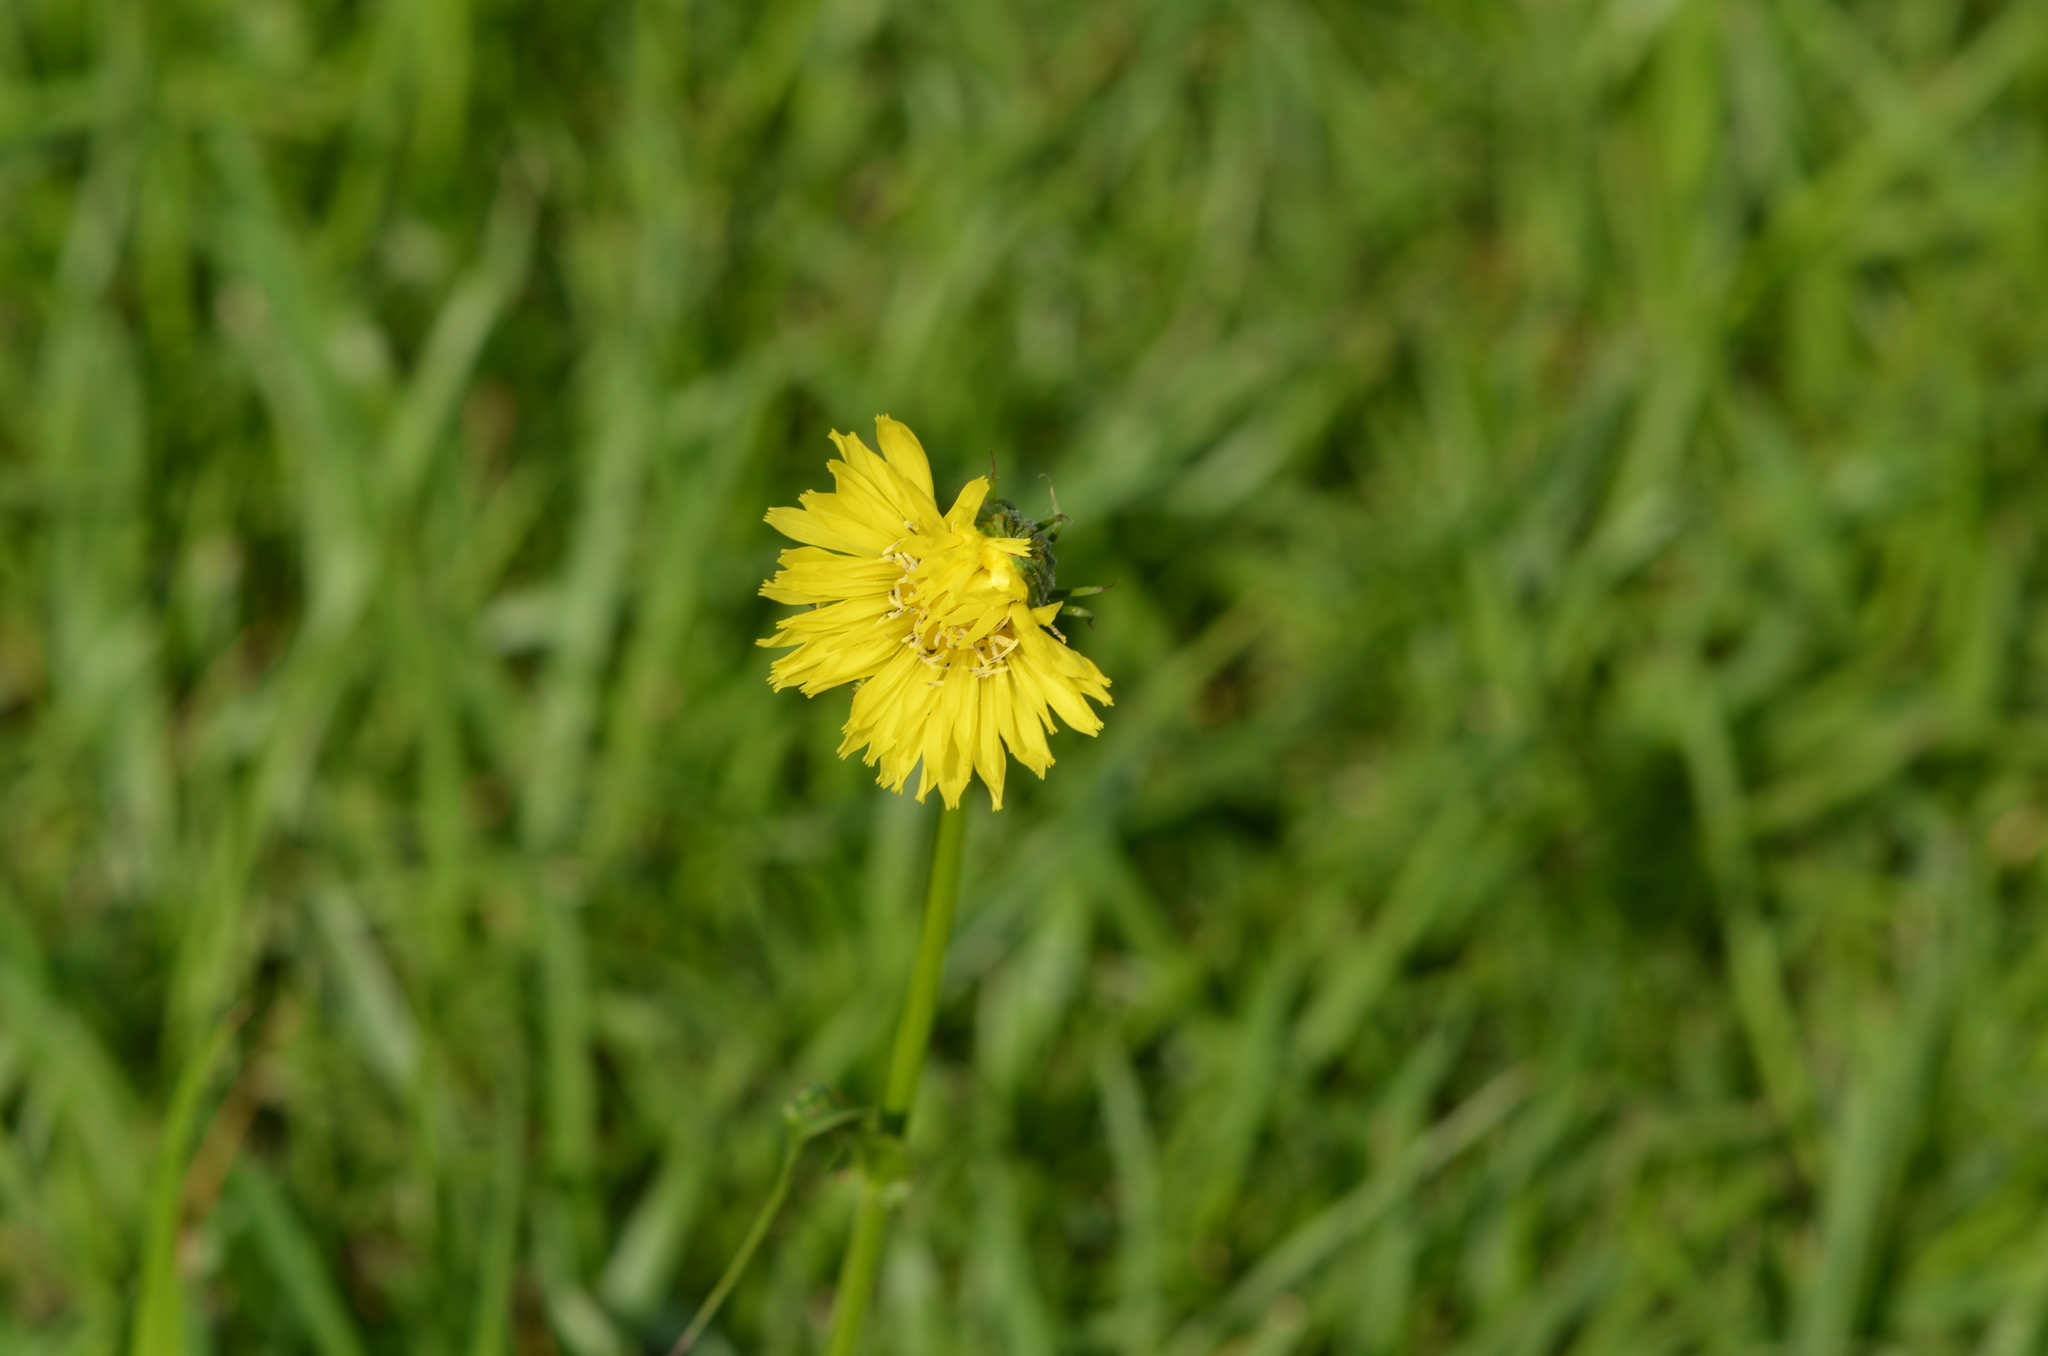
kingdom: Plantae
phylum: Tracheophyta
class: Magnoliopsida
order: Asterales
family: Asteraceae
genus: Pyrrhopappus
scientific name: Pyrrhopappus carolinianus
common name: Carolina desert-chicory
